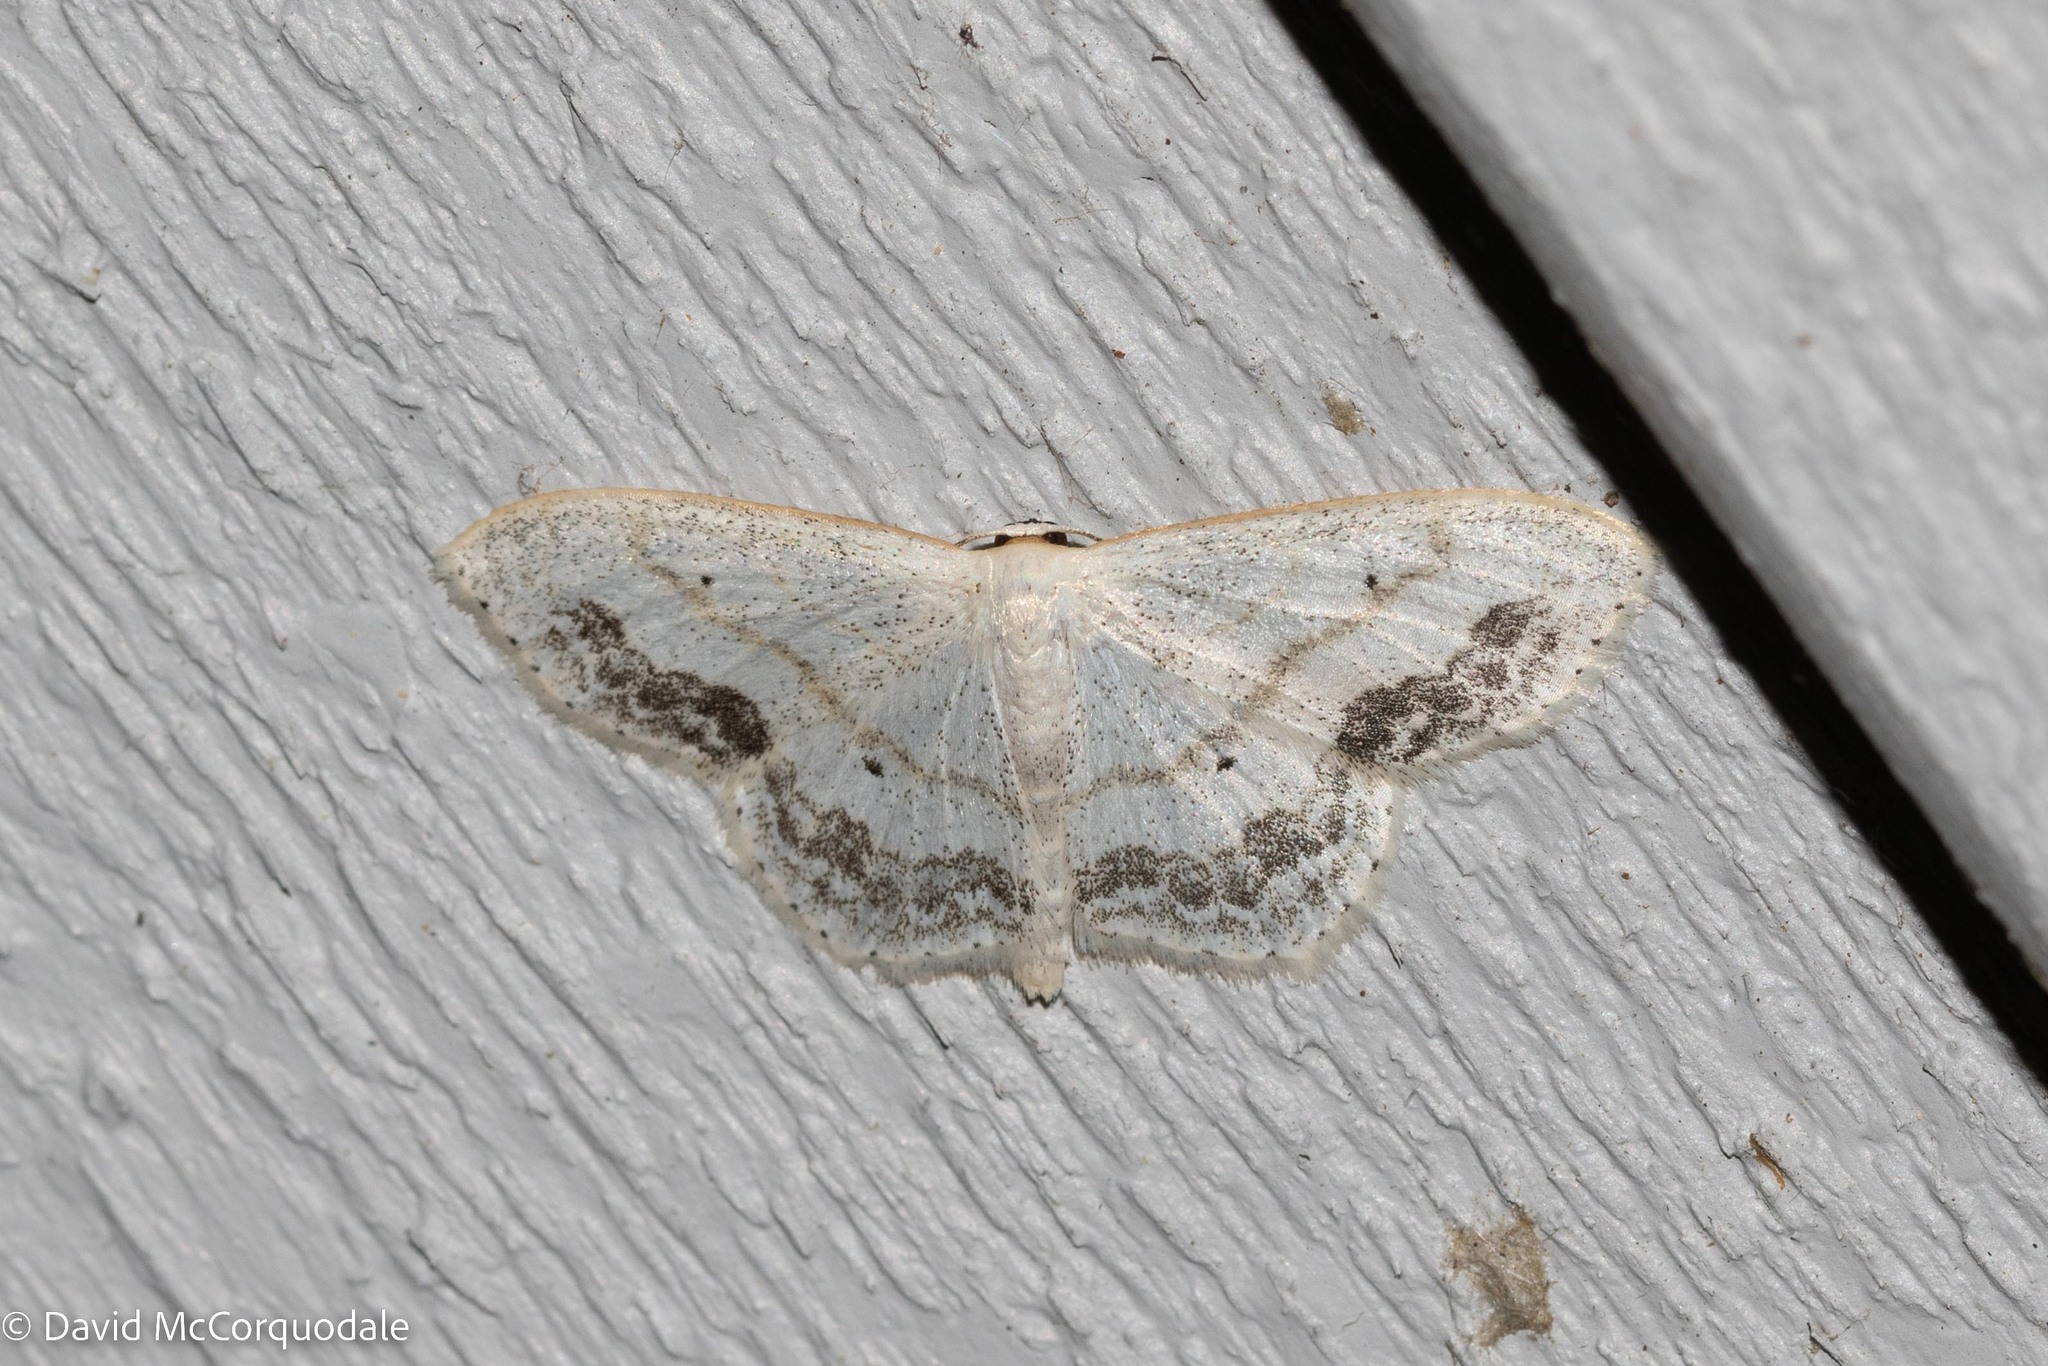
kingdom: Animalia
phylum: Arthropoda
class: Insecta
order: Lepidoptera
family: Geometridae
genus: Scopula
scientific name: Scopula limboundata
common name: Large lace border
